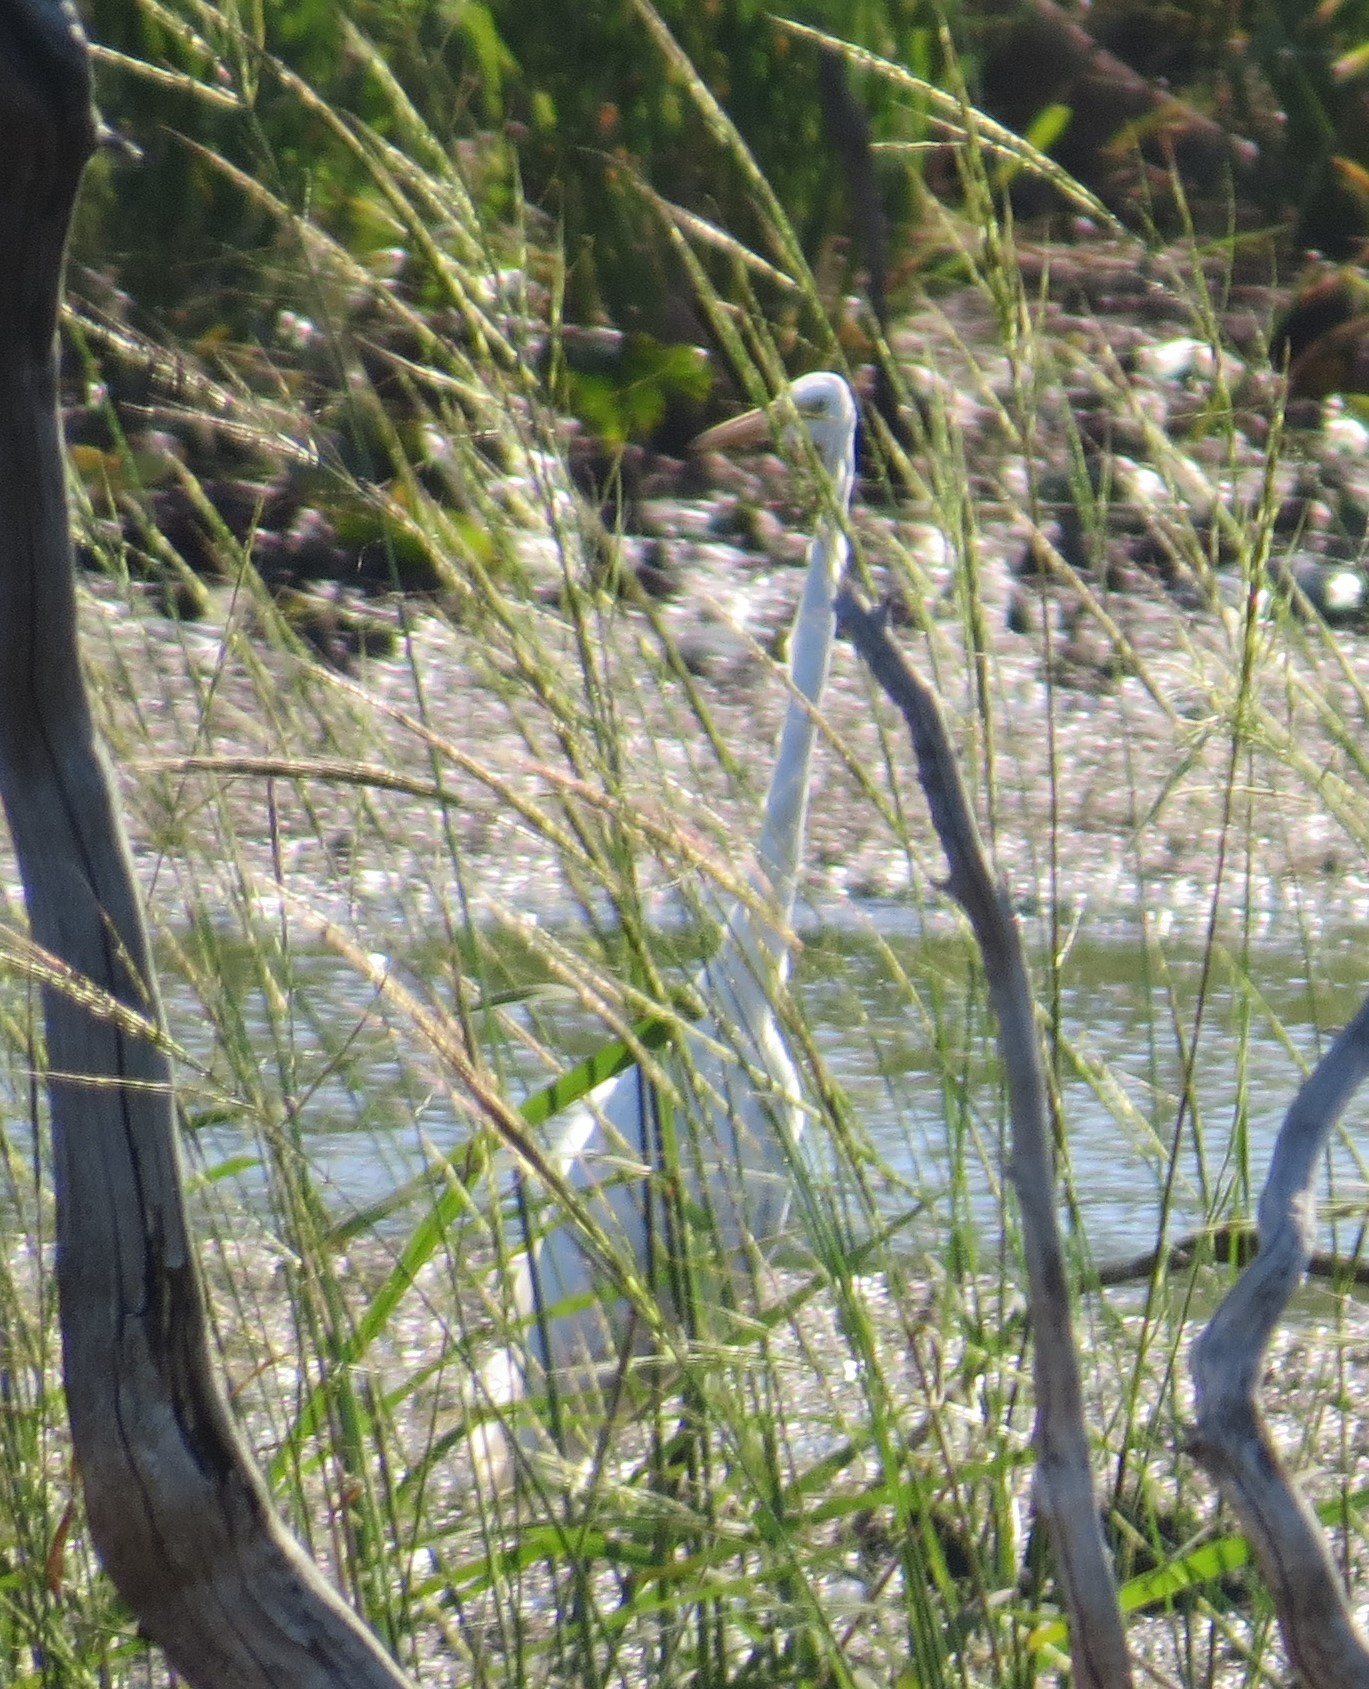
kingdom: Animalia
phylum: Chordata
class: Aves
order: Pelecaniformes
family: Ardeidae
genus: Ardea
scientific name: Ardea alba
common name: Great egret
